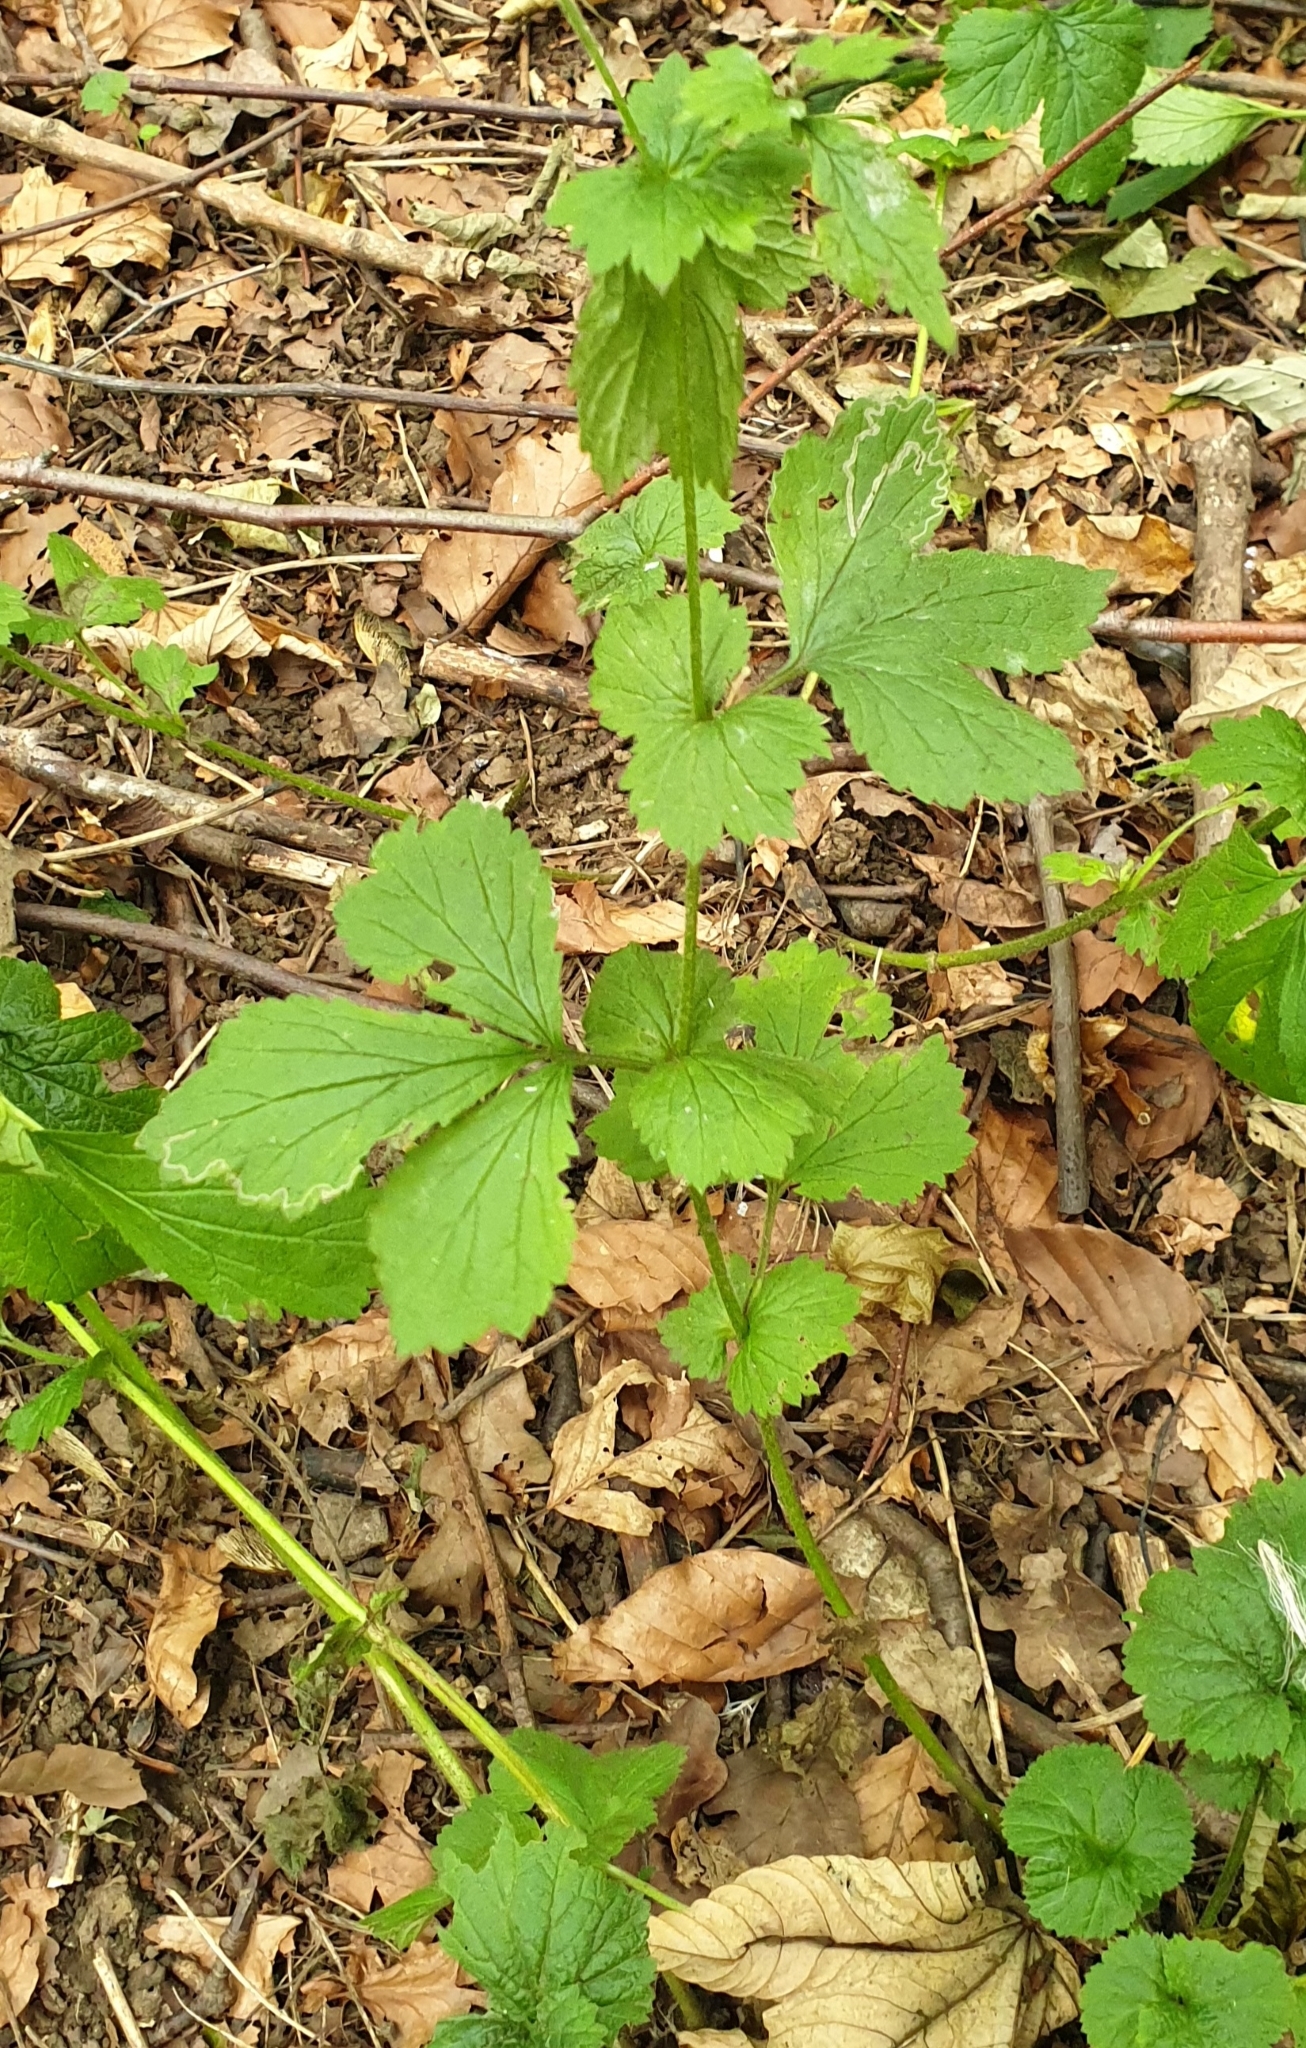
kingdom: Plantae
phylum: Tracheophyta
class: Magnoliopsida
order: Rosales
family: Rosaceae
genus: Geum
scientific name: Geum urbanum
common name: Wood avens
